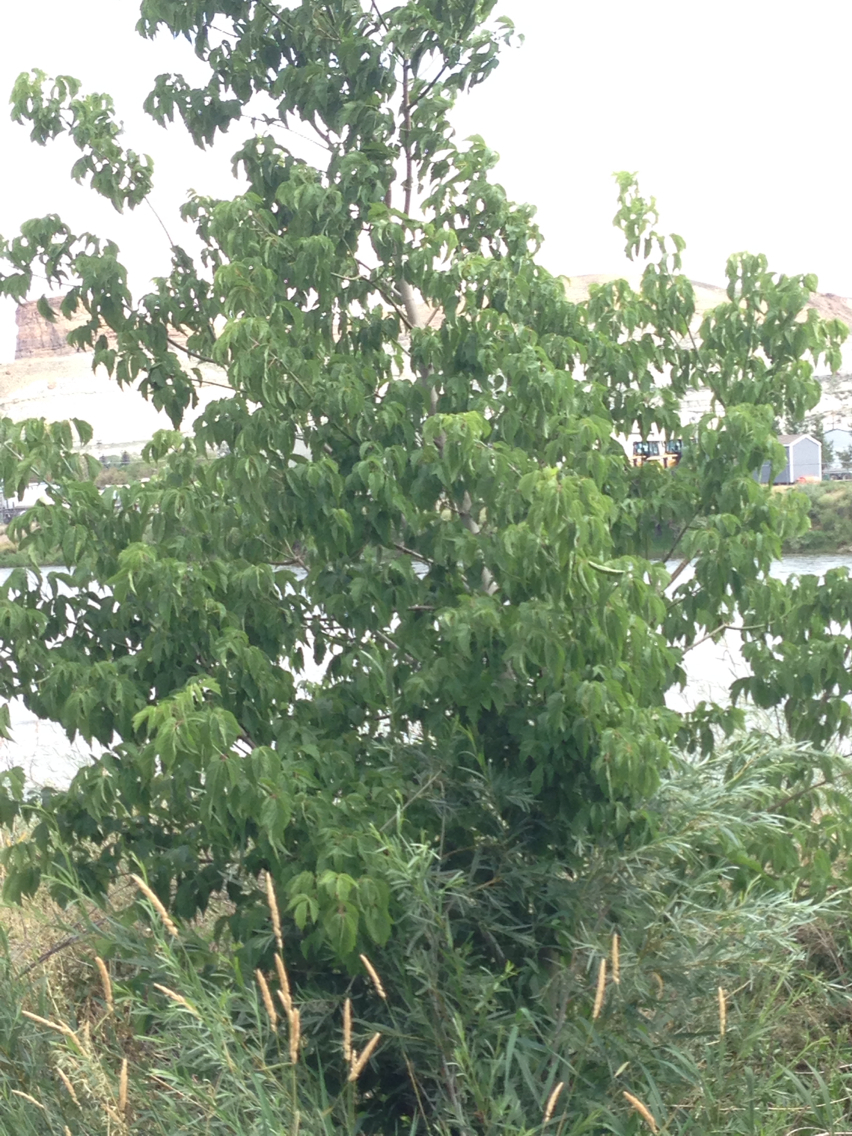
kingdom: Plantae
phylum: Tracheophyta
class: Magnoliopsida
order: Sapindales
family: Sapindaceae
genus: Acer
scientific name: Acer negundo
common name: Ashleaf maple
